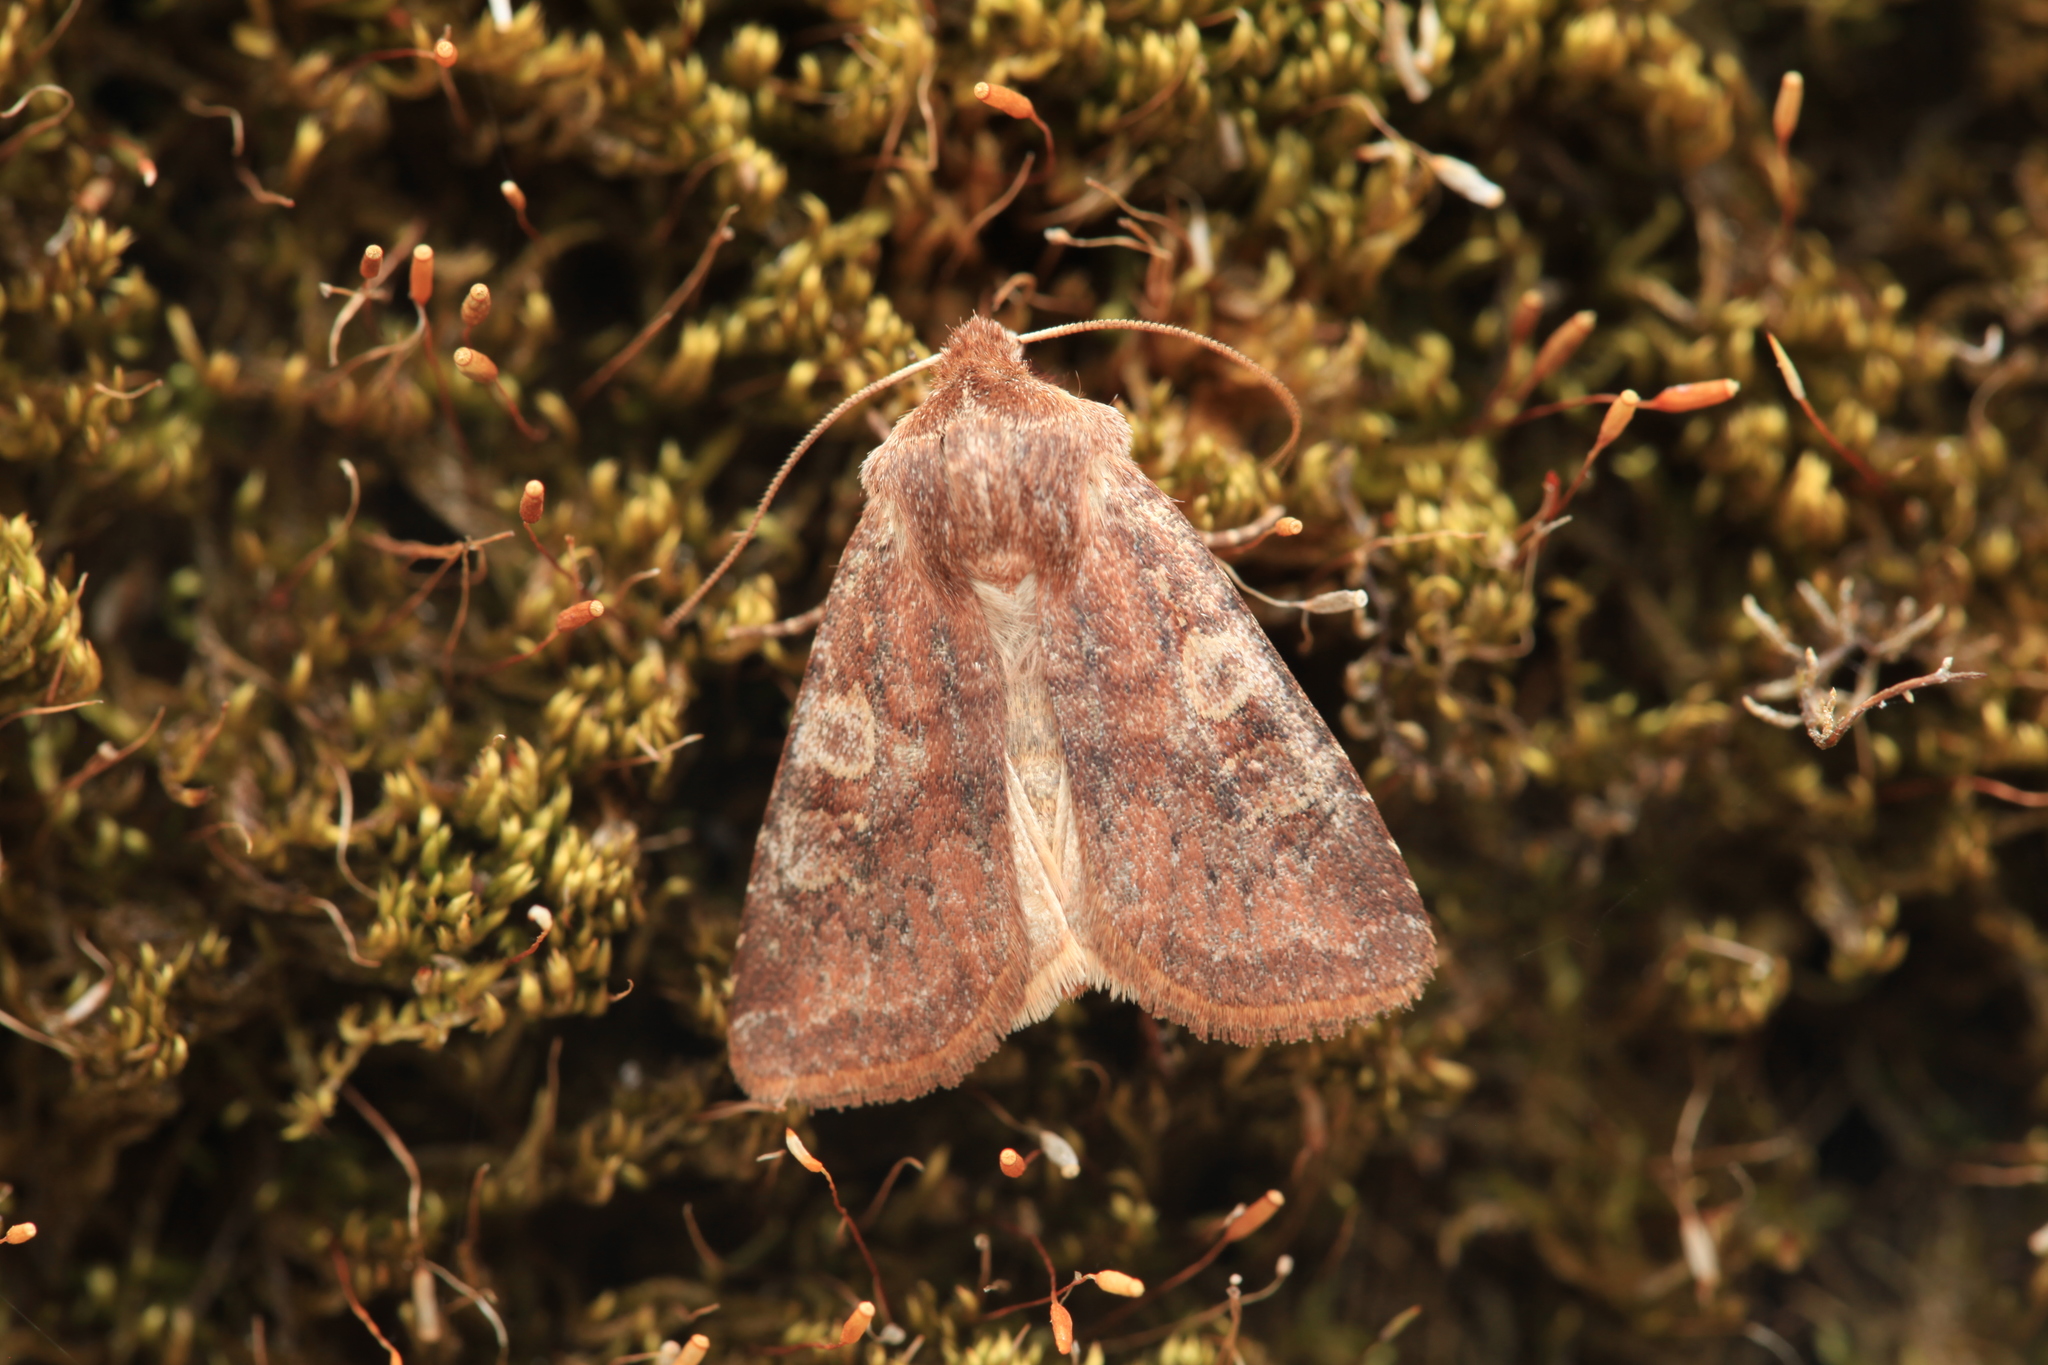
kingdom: Animalia
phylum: Arthropoda
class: Insecta
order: Lepidoptera
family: Noctuidae
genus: Cerastis
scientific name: Cerastis leucographa
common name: White-marked
